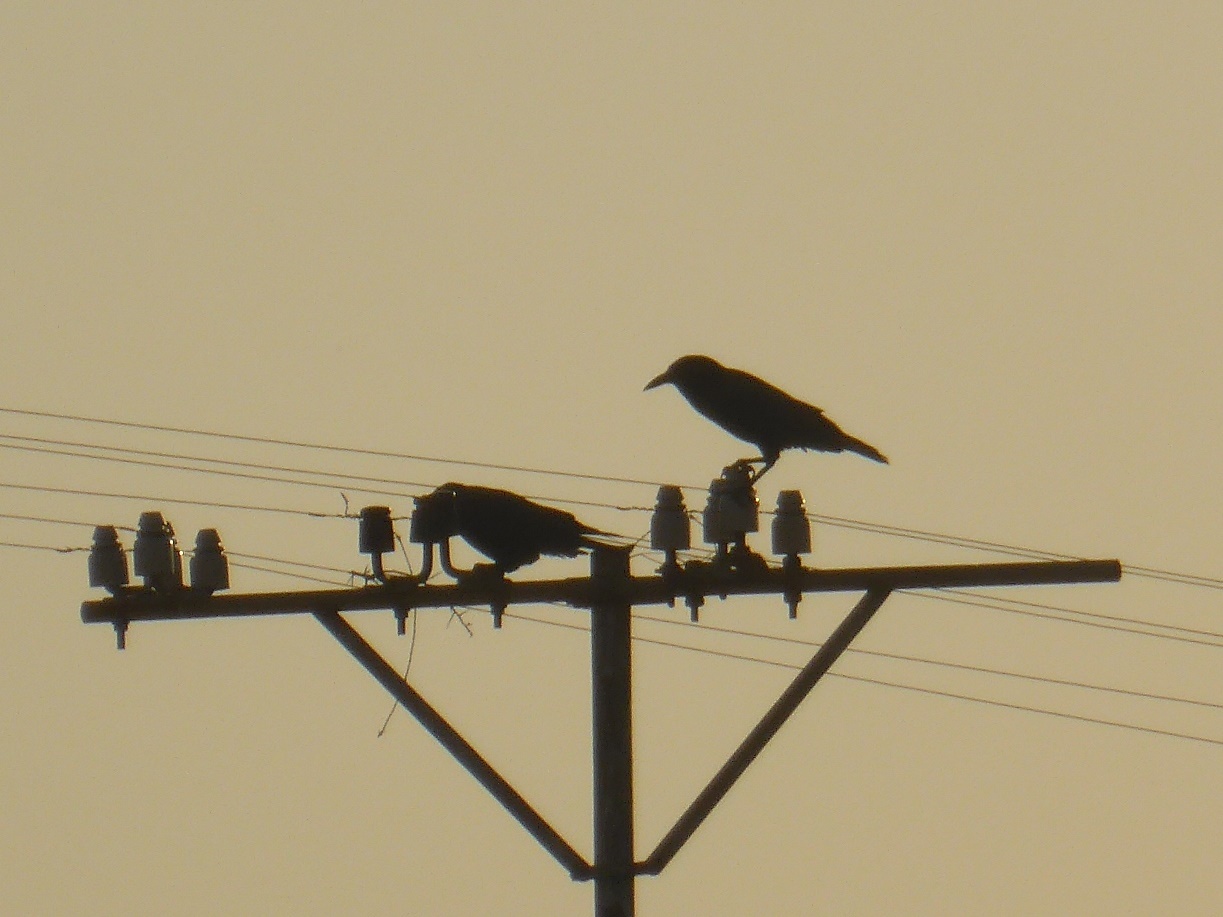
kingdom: Animalia
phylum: Chordata
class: Aves
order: Passeriformes
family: Corvidae
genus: Corvus
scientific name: Corvus capensis
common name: Cape crow
